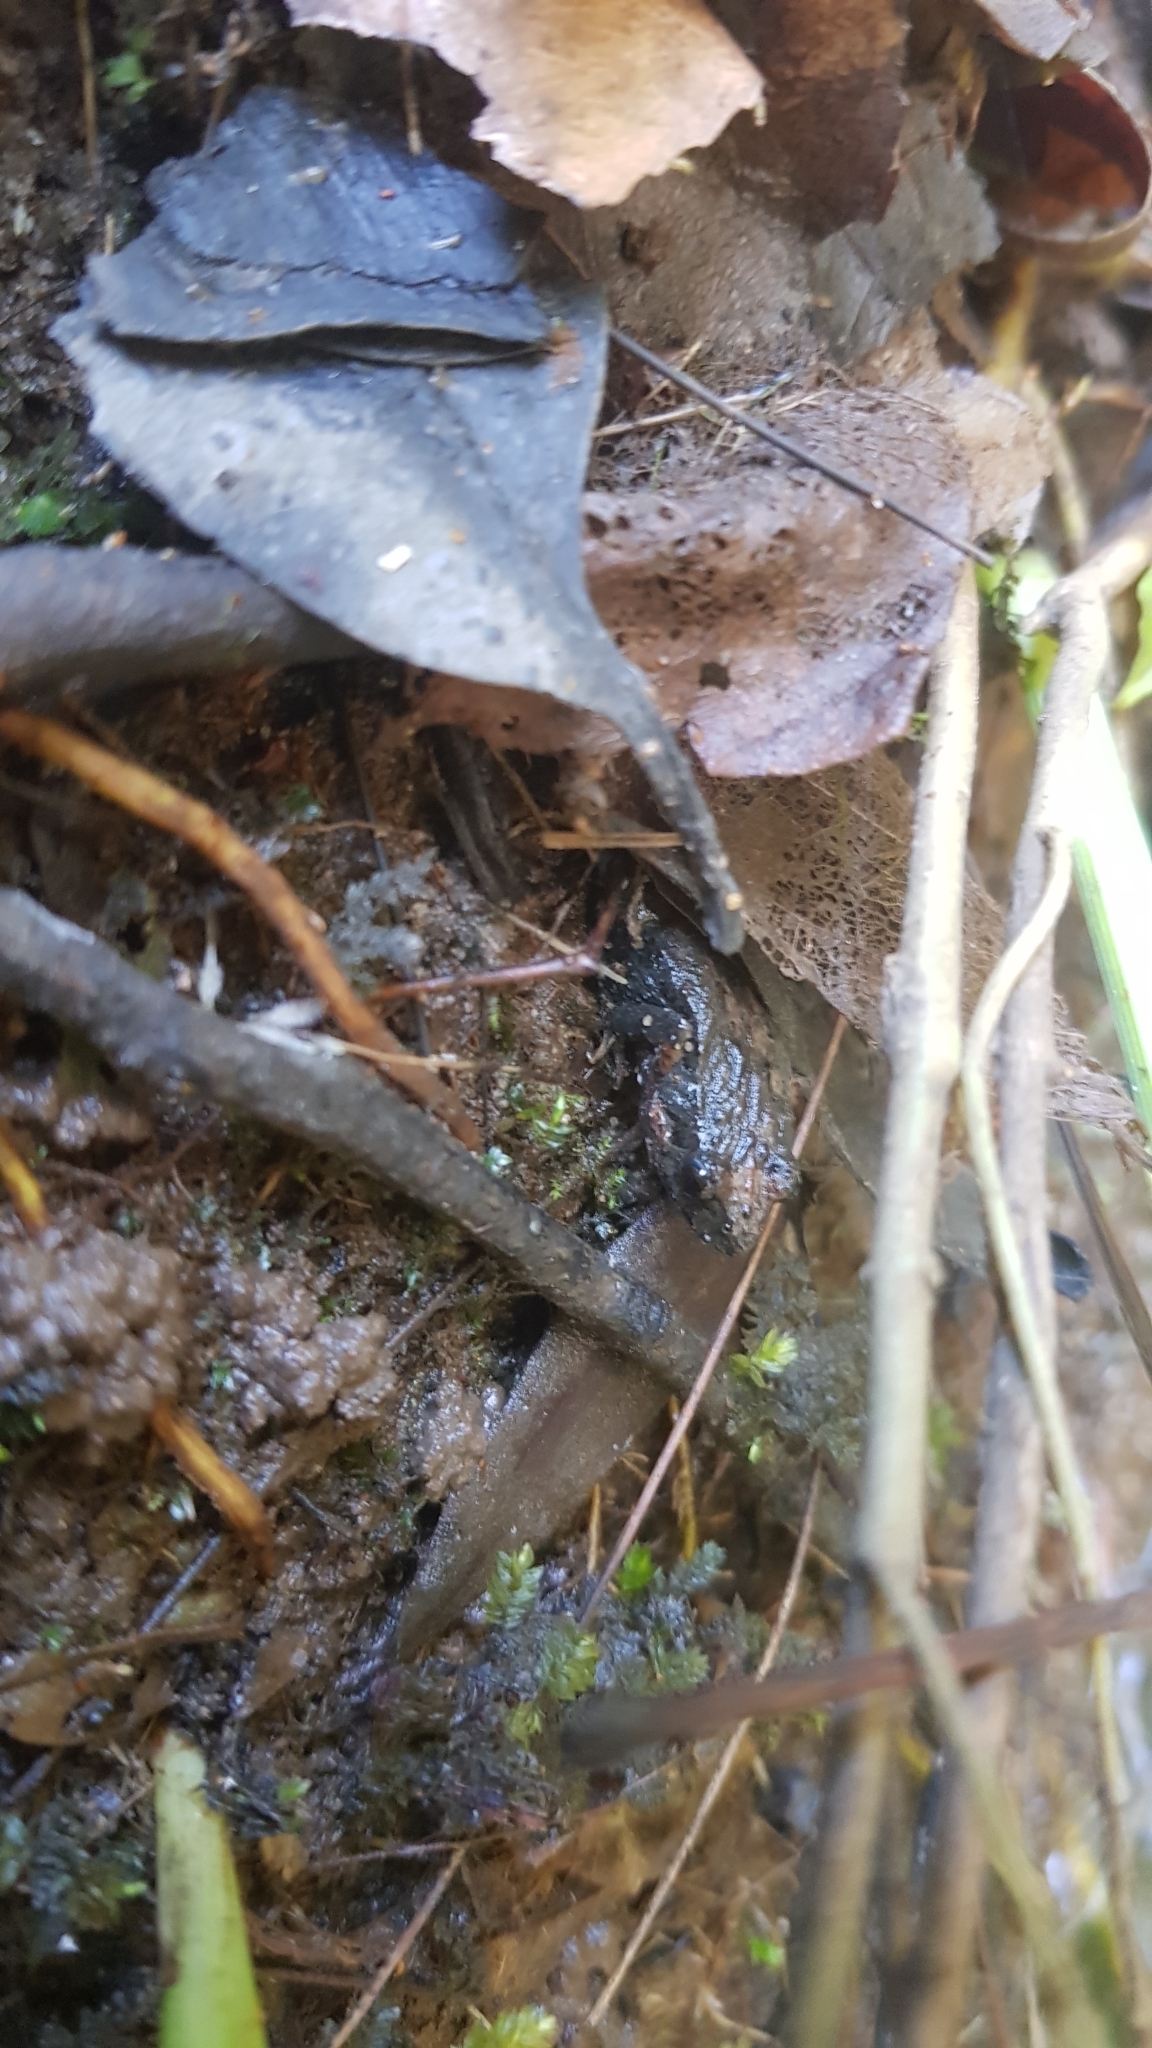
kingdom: Animalia
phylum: Chordata
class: Amphibia
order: Anura
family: Myobatrachidae
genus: Crinia
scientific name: Crinia signifera
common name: Brown froglet
